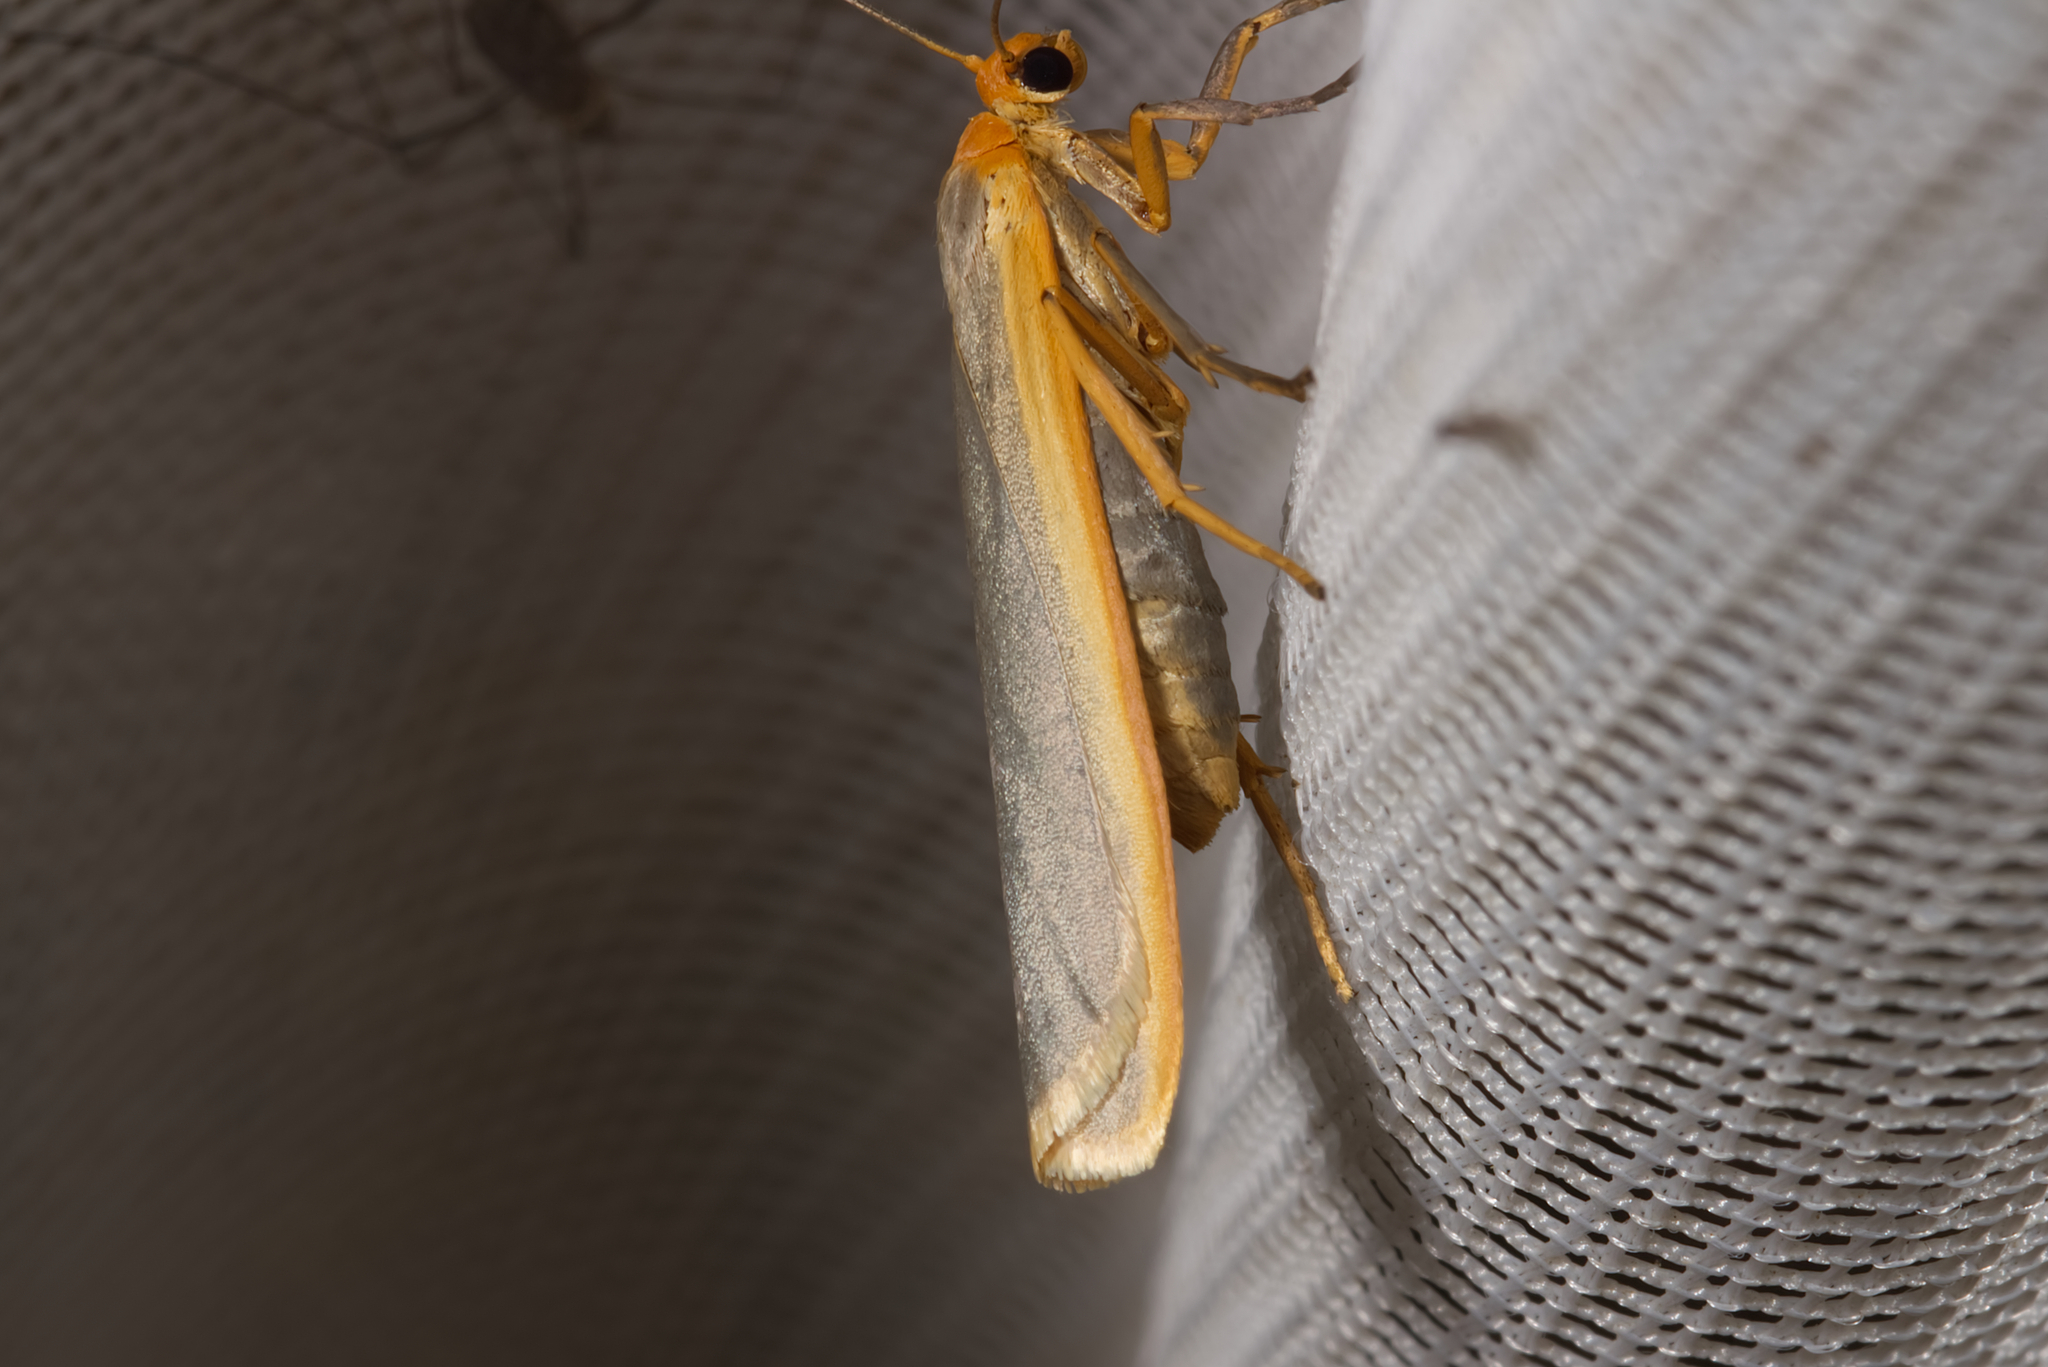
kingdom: Animalia
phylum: Arthropoda
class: Insecta
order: Lepidoptera
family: Erebidae
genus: Manulea
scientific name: Manulea complana
